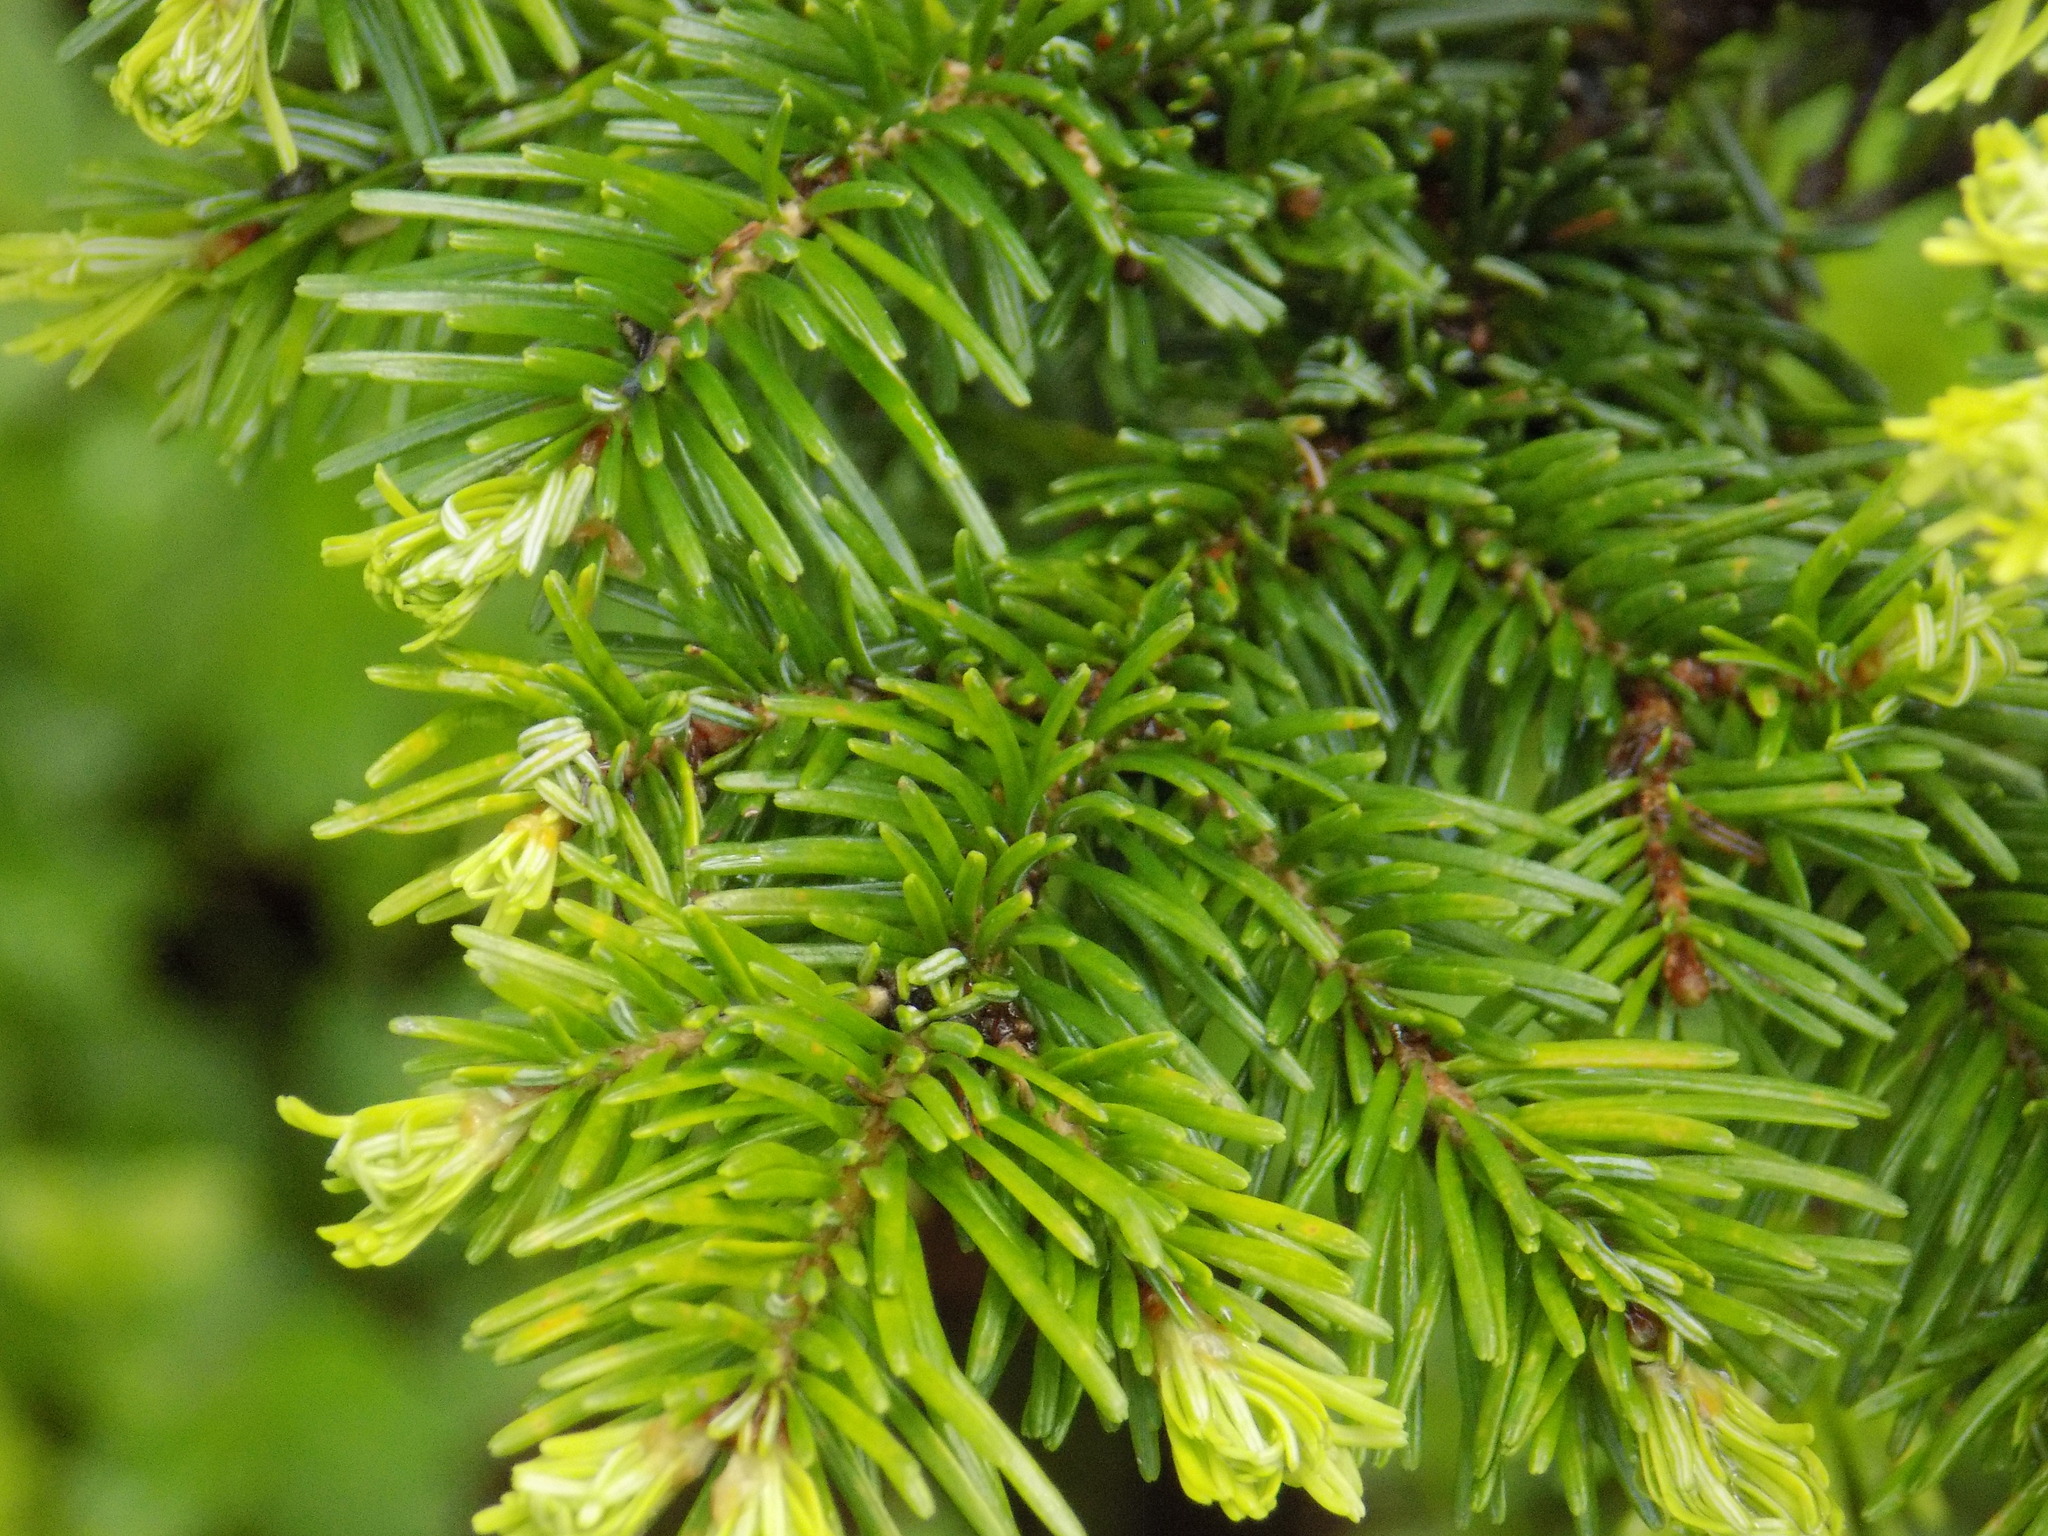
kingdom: Plantae
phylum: Tracheophyta
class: Pinopsida
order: Pinales
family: Pinaceae
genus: Abies
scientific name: Abies sibirica
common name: Siberian fir
